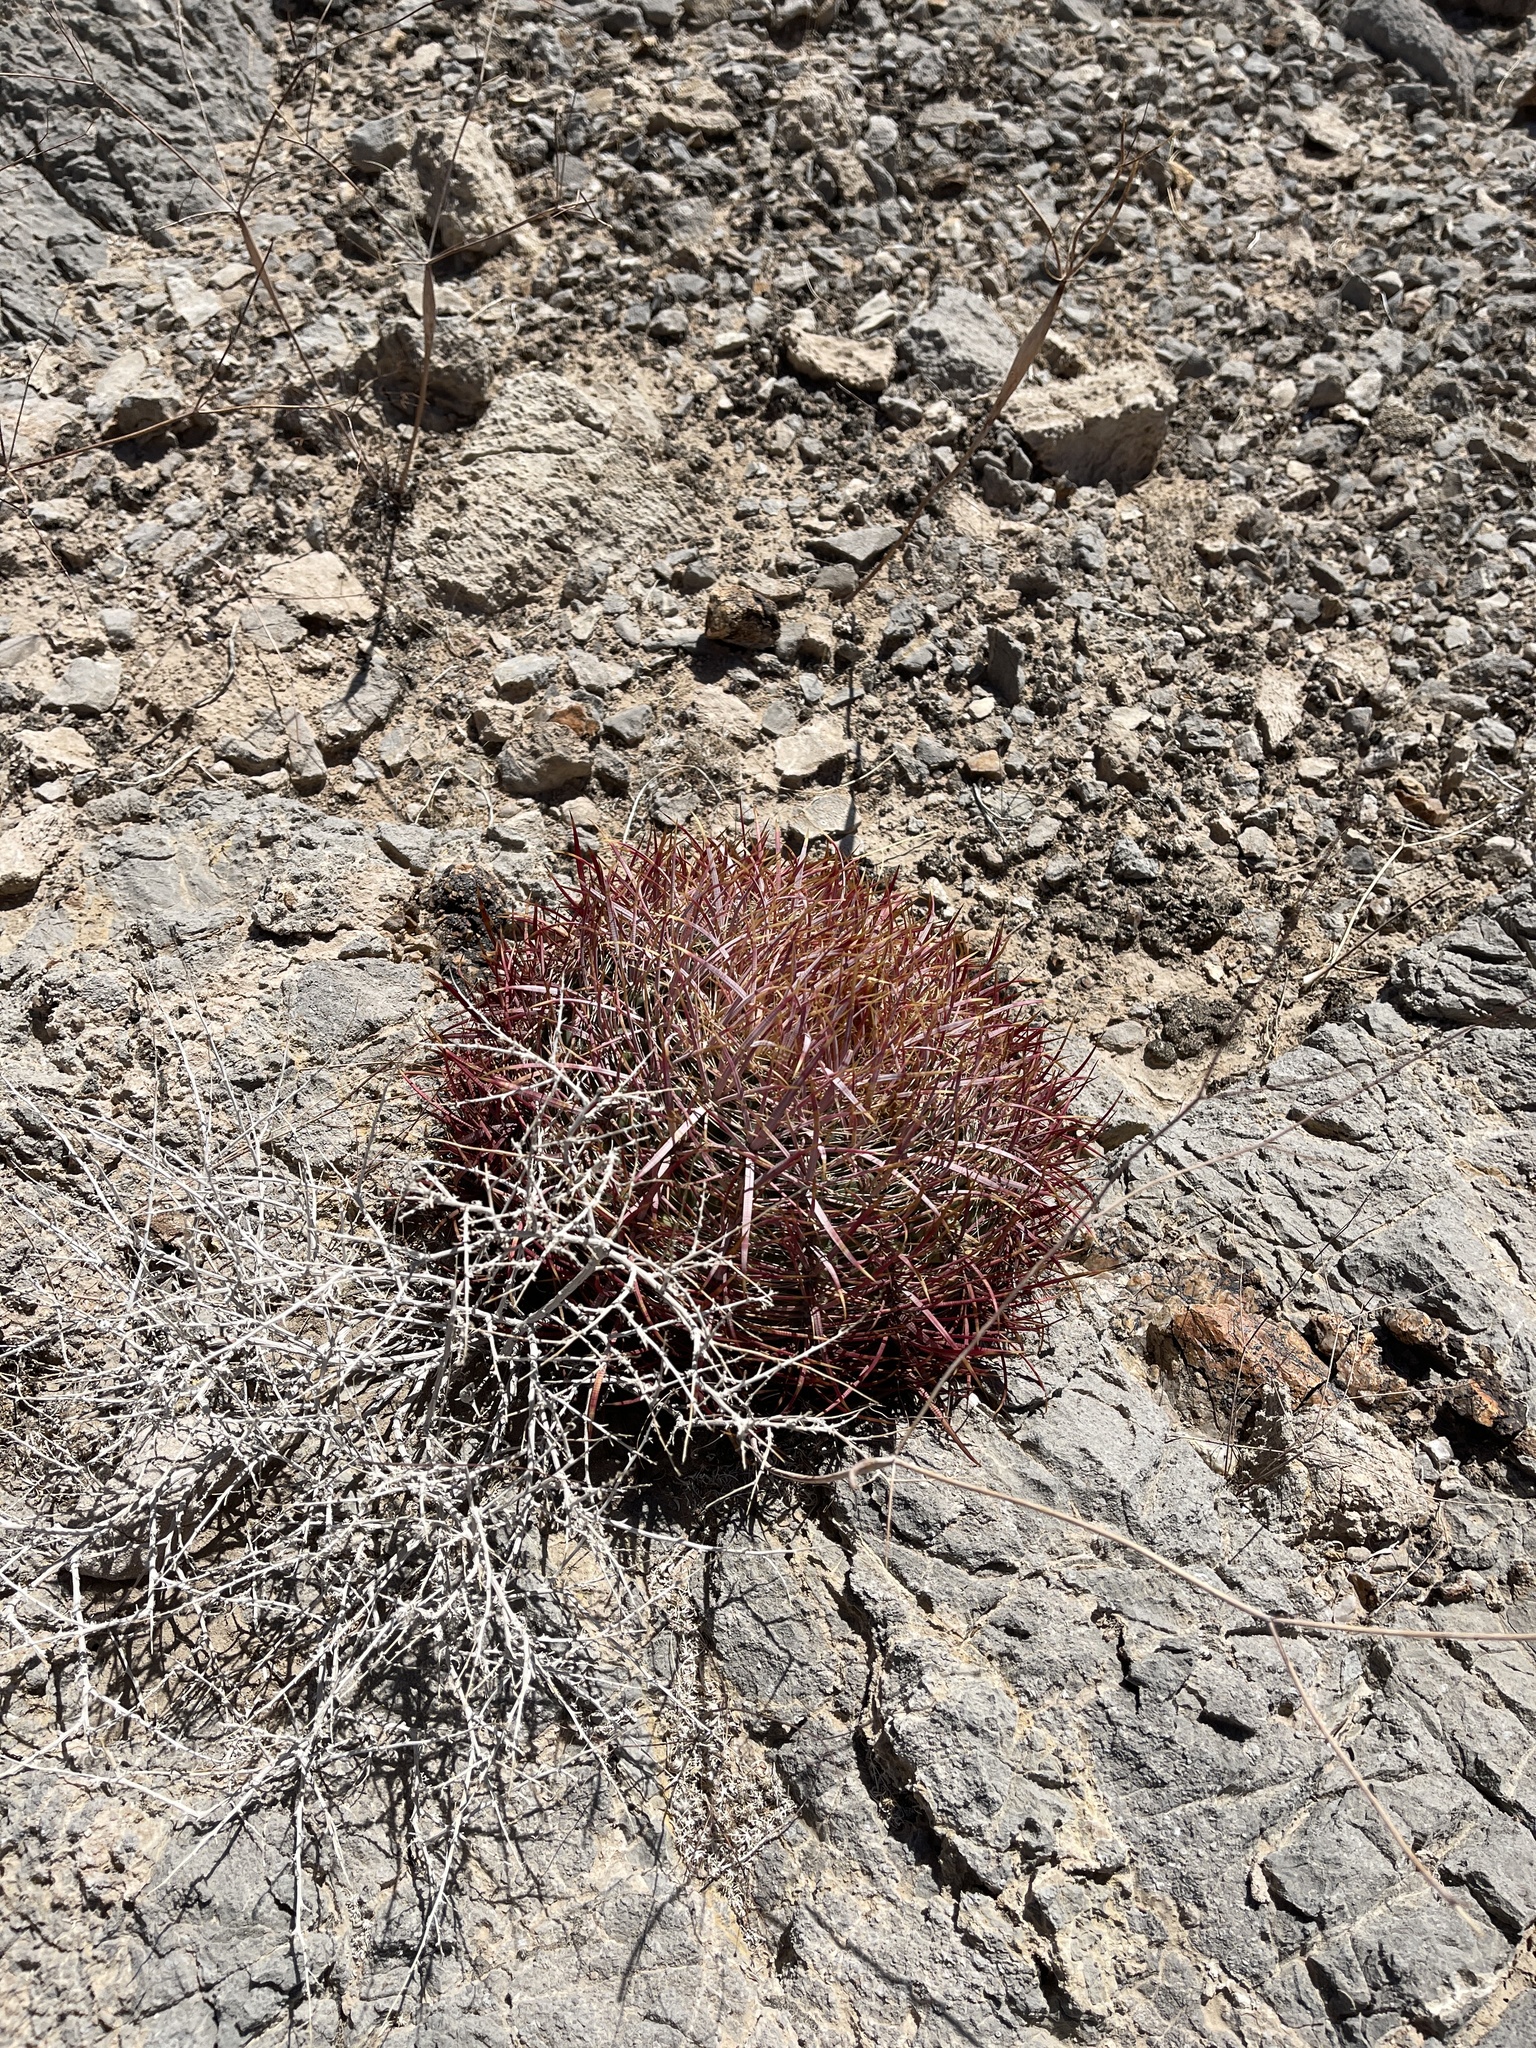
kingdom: Plantae
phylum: Tracheophyta
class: Magnoliopsida
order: Caryophyllales
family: Cactaceae
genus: Ferocactus
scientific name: Ferocactus cylindraceus
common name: California barrel cactus
